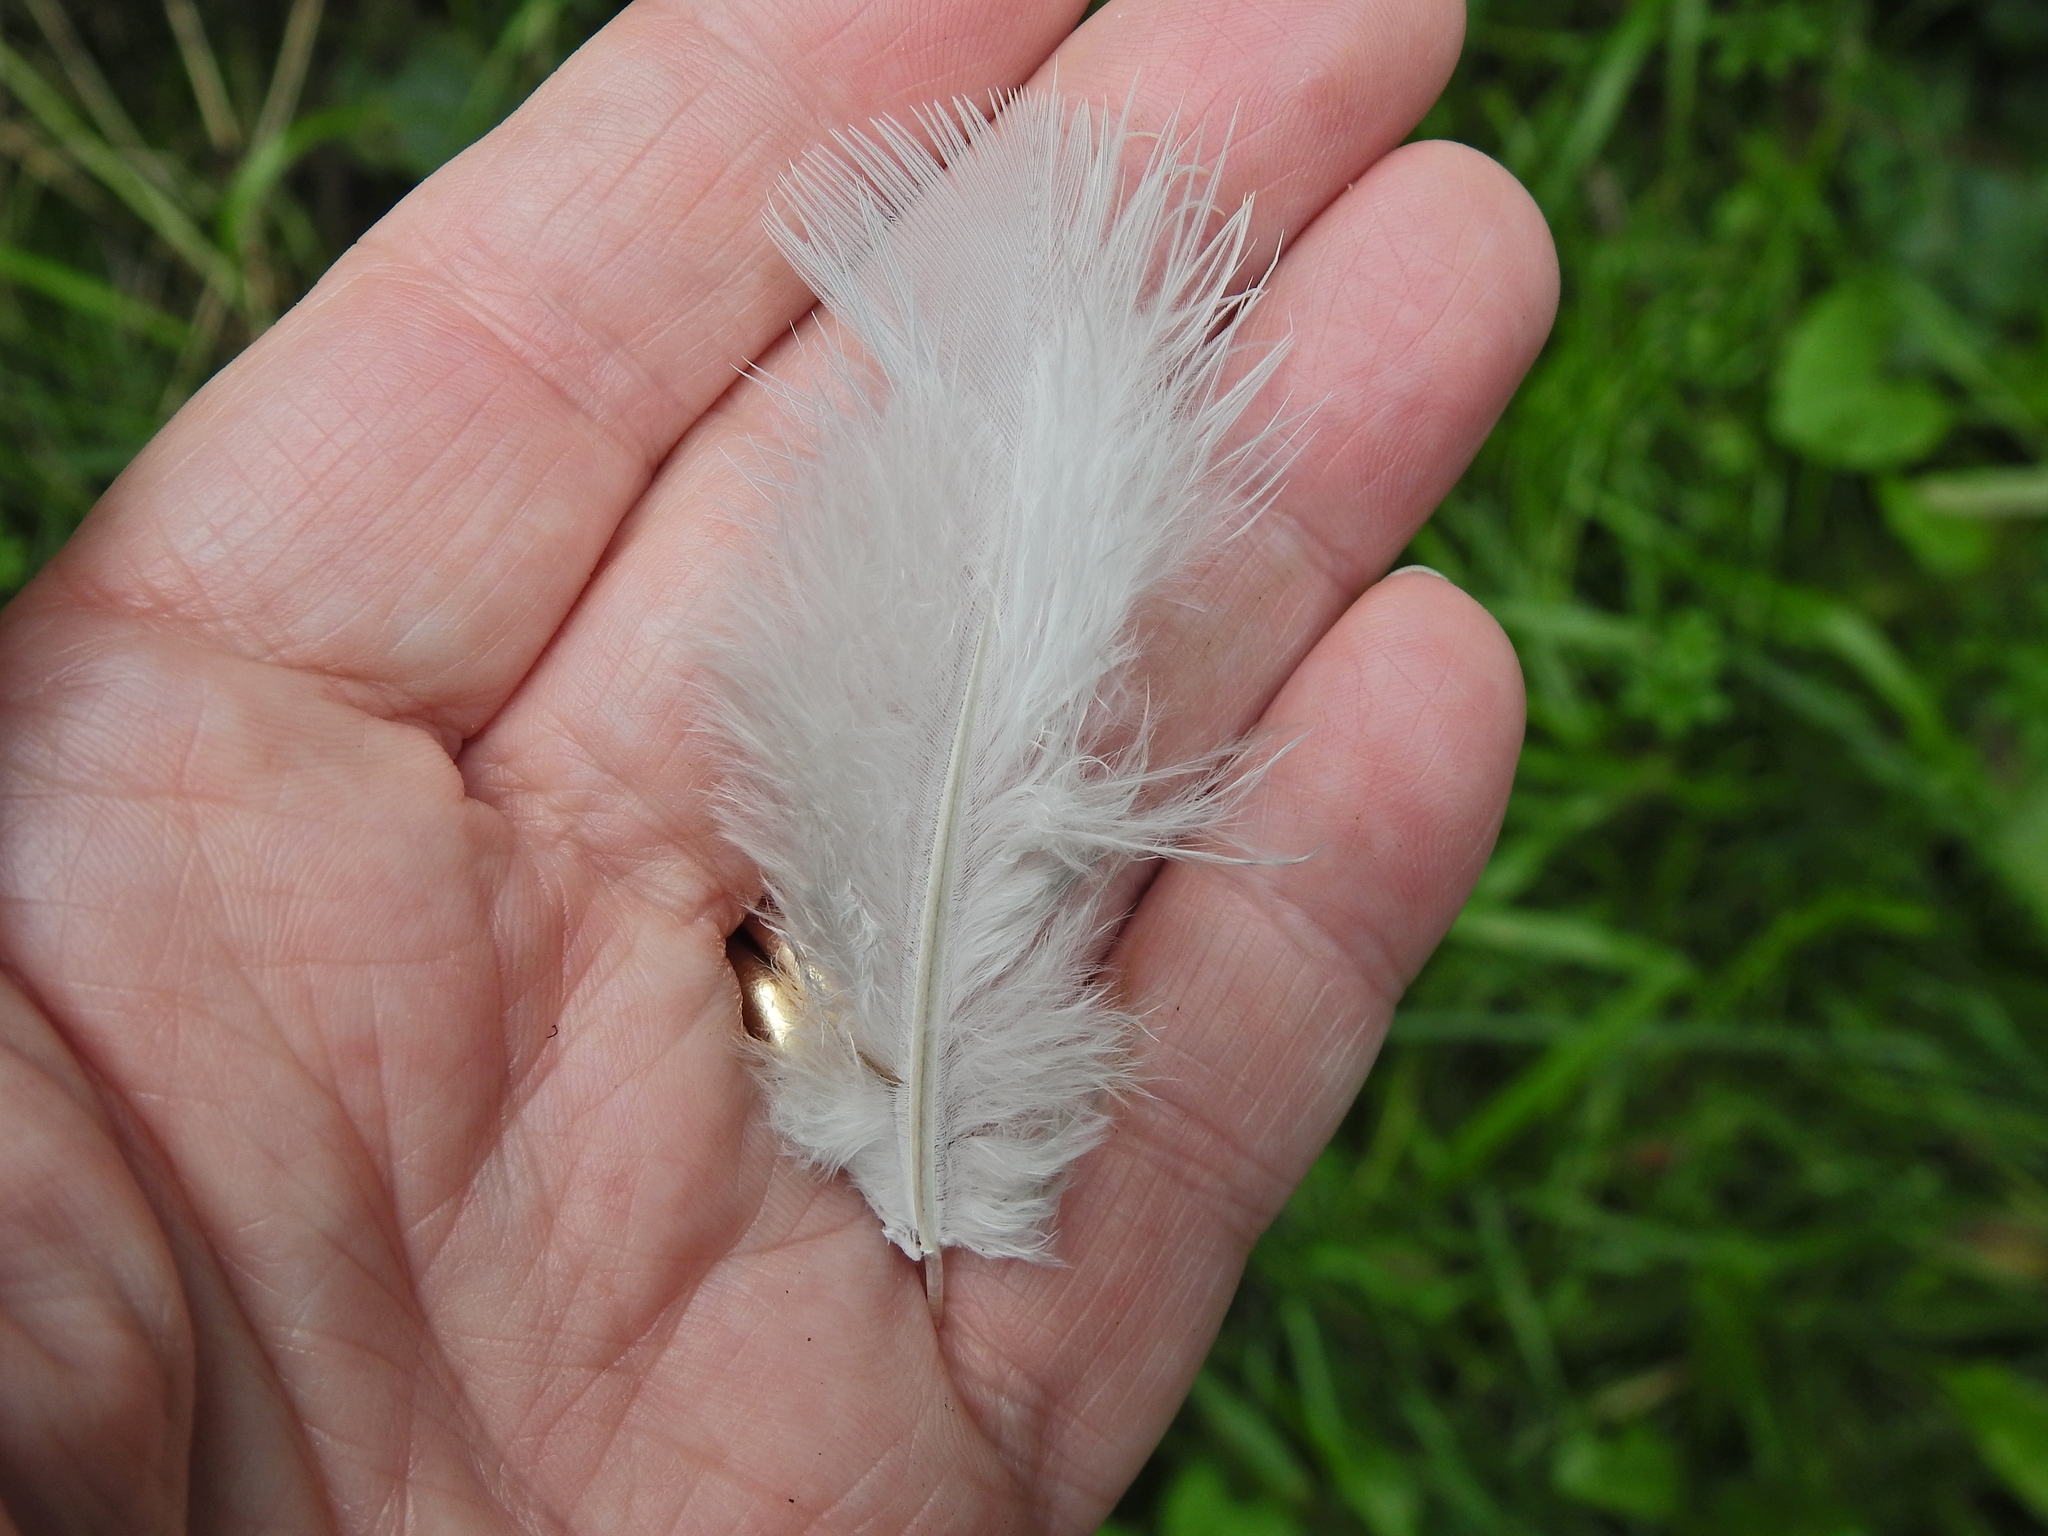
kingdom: Animalia
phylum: Chordata
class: Aves
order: Columbiformes
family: Columbidae
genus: Columba
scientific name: Columba palumbus
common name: Common wood pigeon
